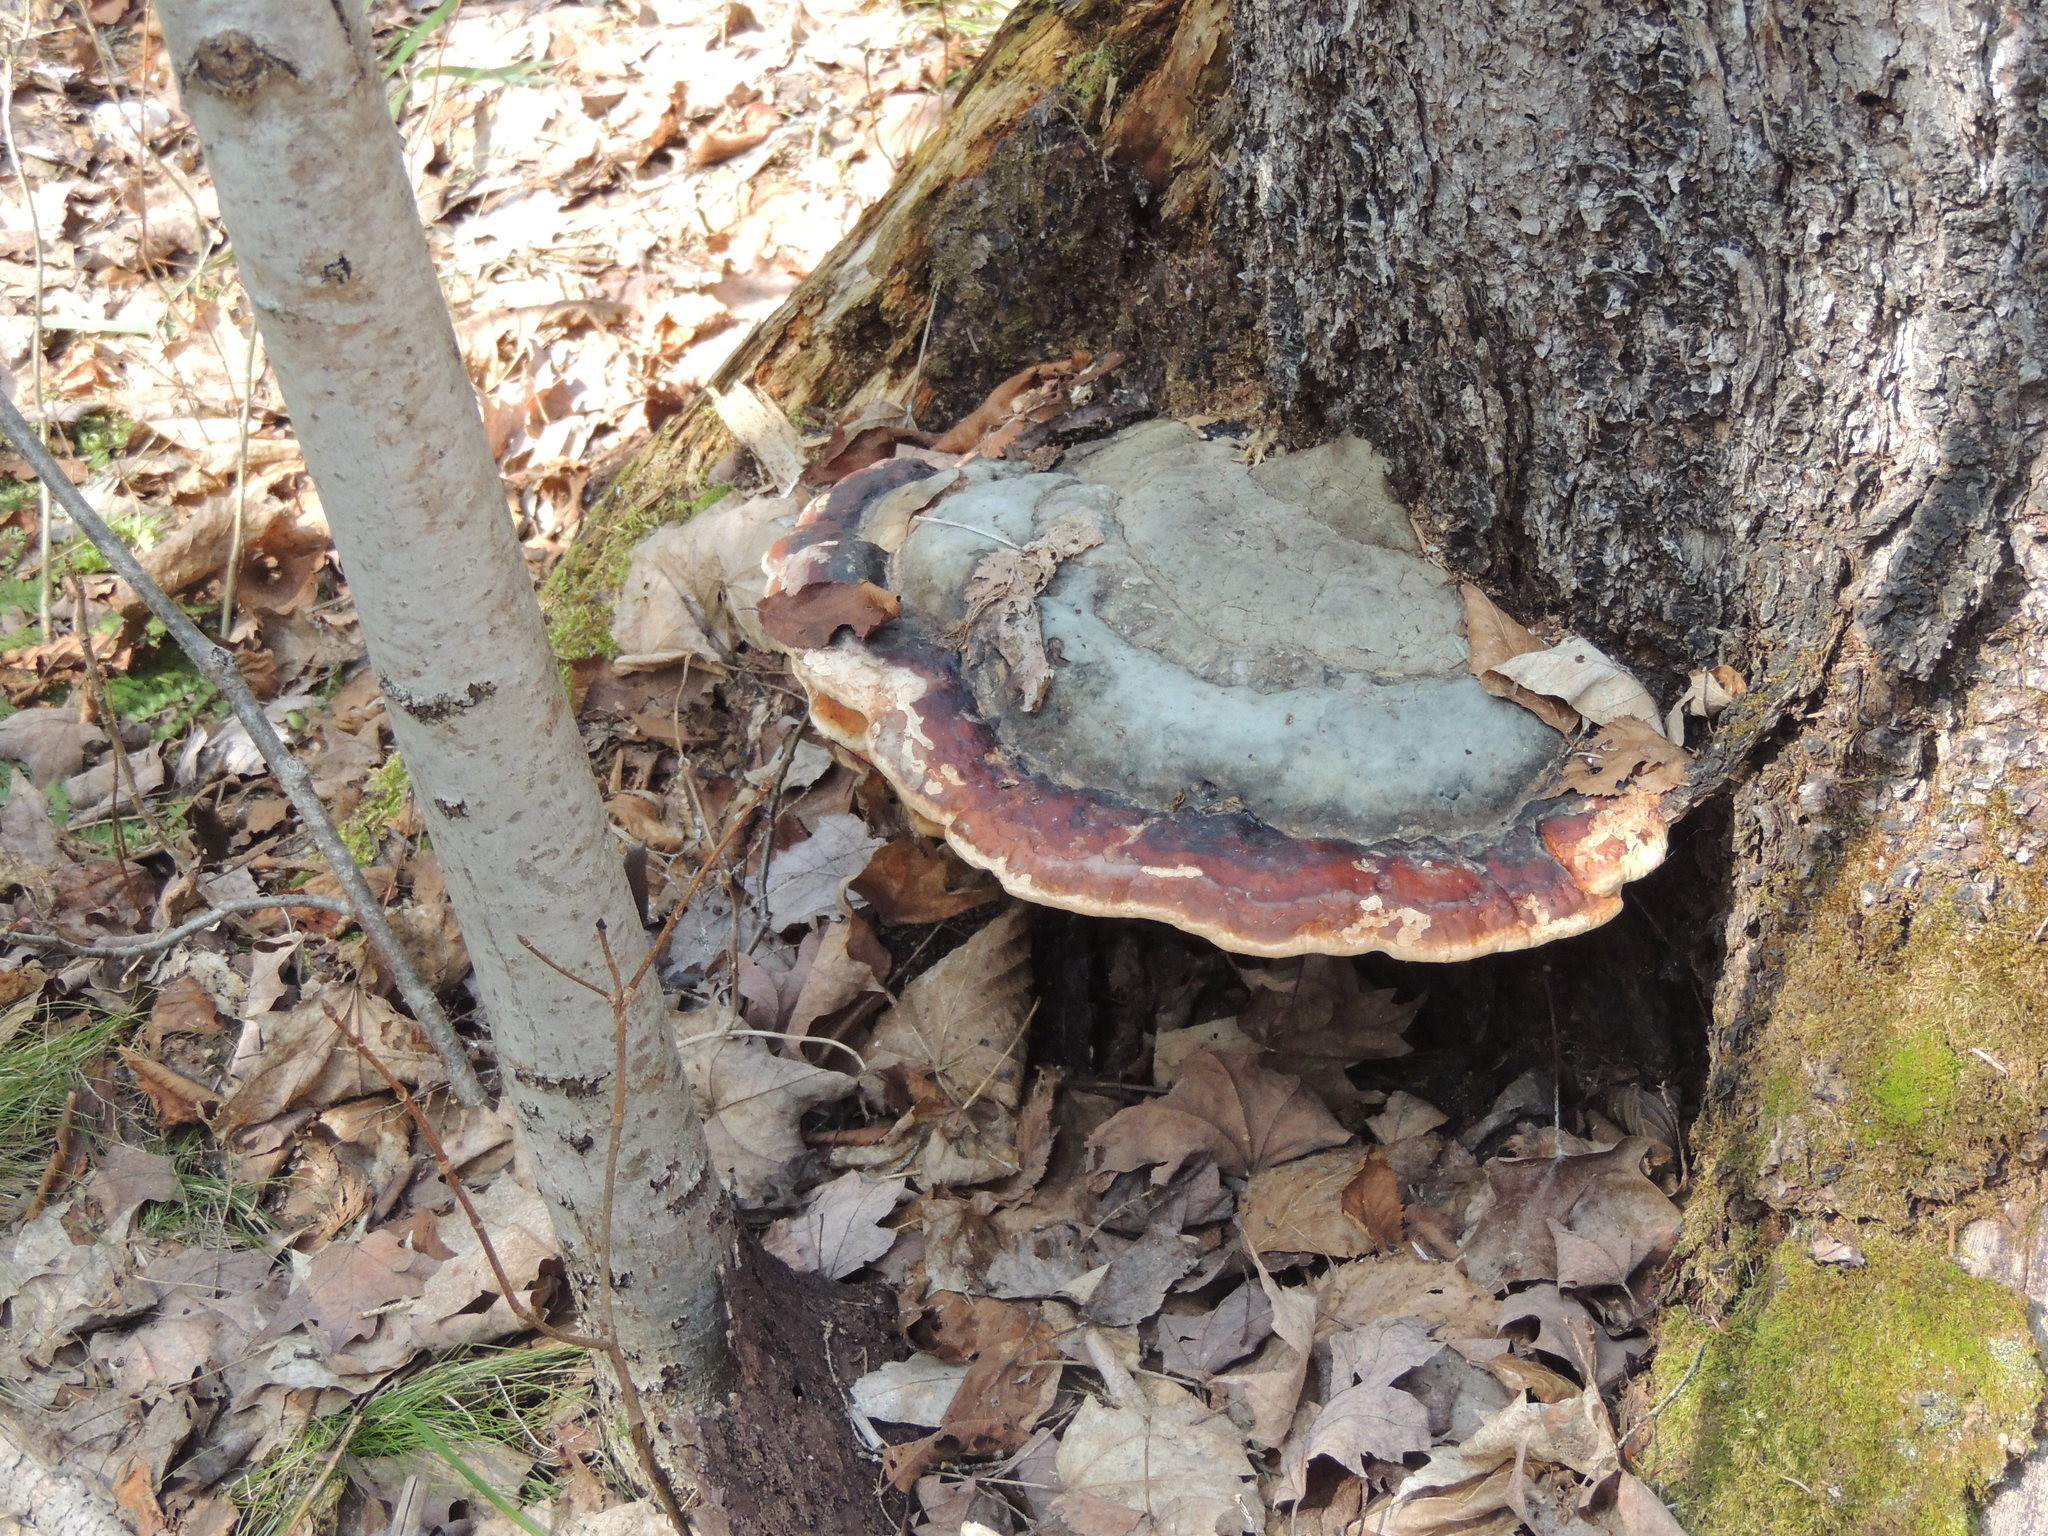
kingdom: Fungi
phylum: Basidiomycota
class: Agaricomycetes
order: Polyporales
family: Fomitopsidaceae
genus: Fomitopsis
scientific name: Fomitopsis mounceae
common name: Northern red belt
